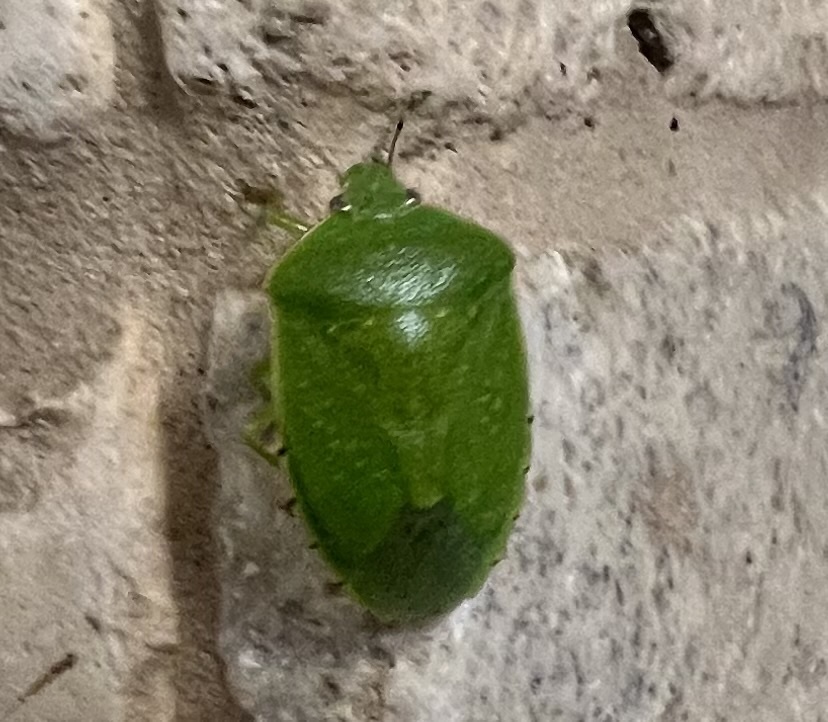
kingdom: Animalia
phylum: Arthropoda
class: Insecta
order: Hemiptera
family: Pentatomidae
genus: Chinavia
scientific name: Chinavia hilaris
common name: Green stink bug
